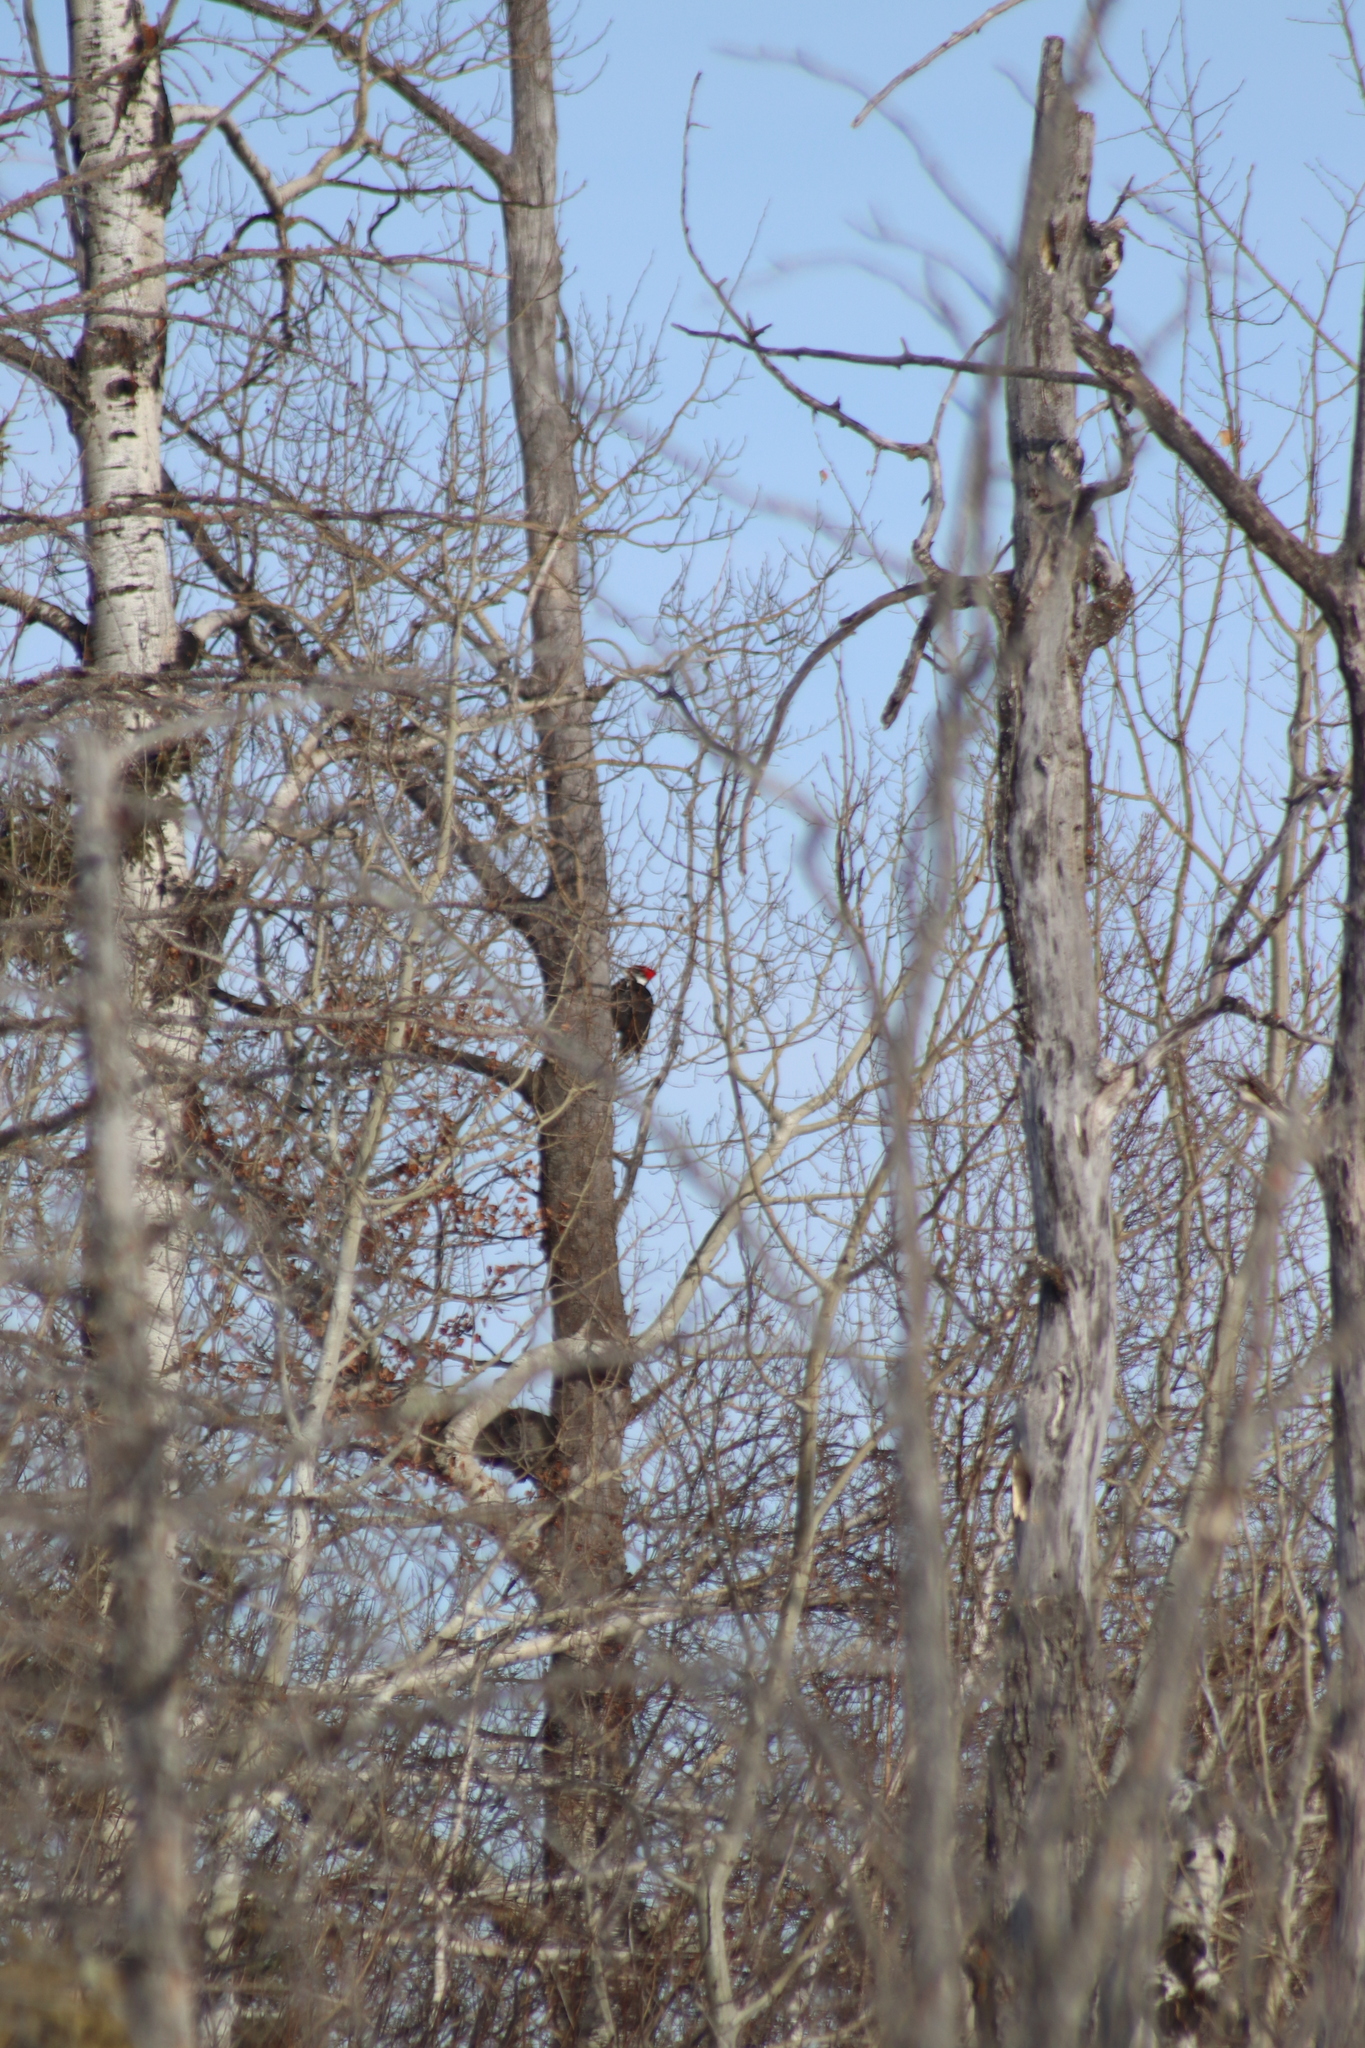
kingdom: Animalia
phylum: Chordata
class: Aves
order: Piciformes
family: Picidae
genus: Dryocopus
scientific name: Dryocopus pileatus
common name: Pileated woodpecker
